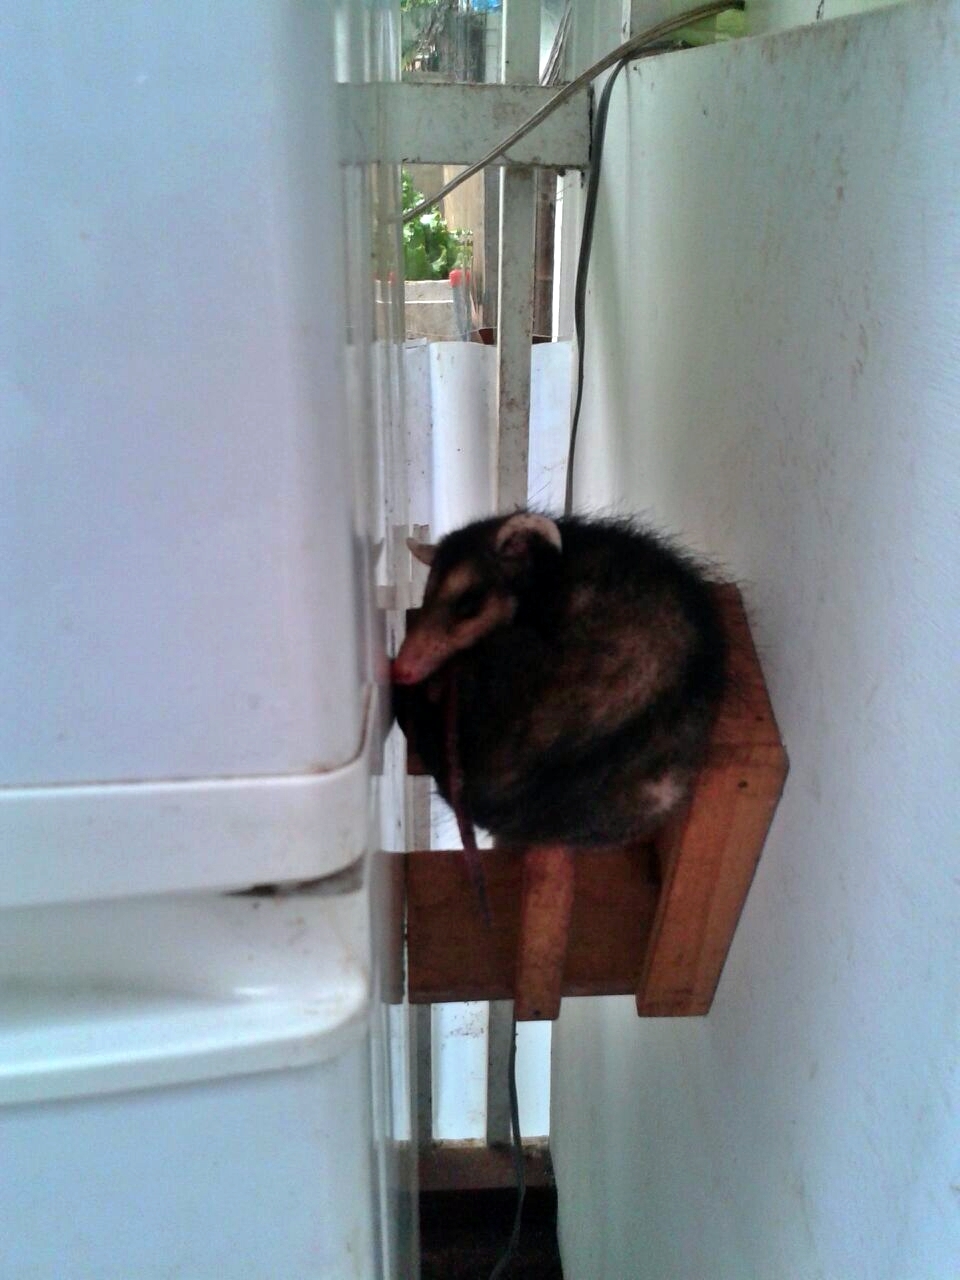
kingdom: Animalia
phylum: Chordata
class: Mammalia
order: Didelphimorphia
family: Didelphidae
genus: Didelphis
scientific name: Didelphis marsupialis
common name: Common opossum
